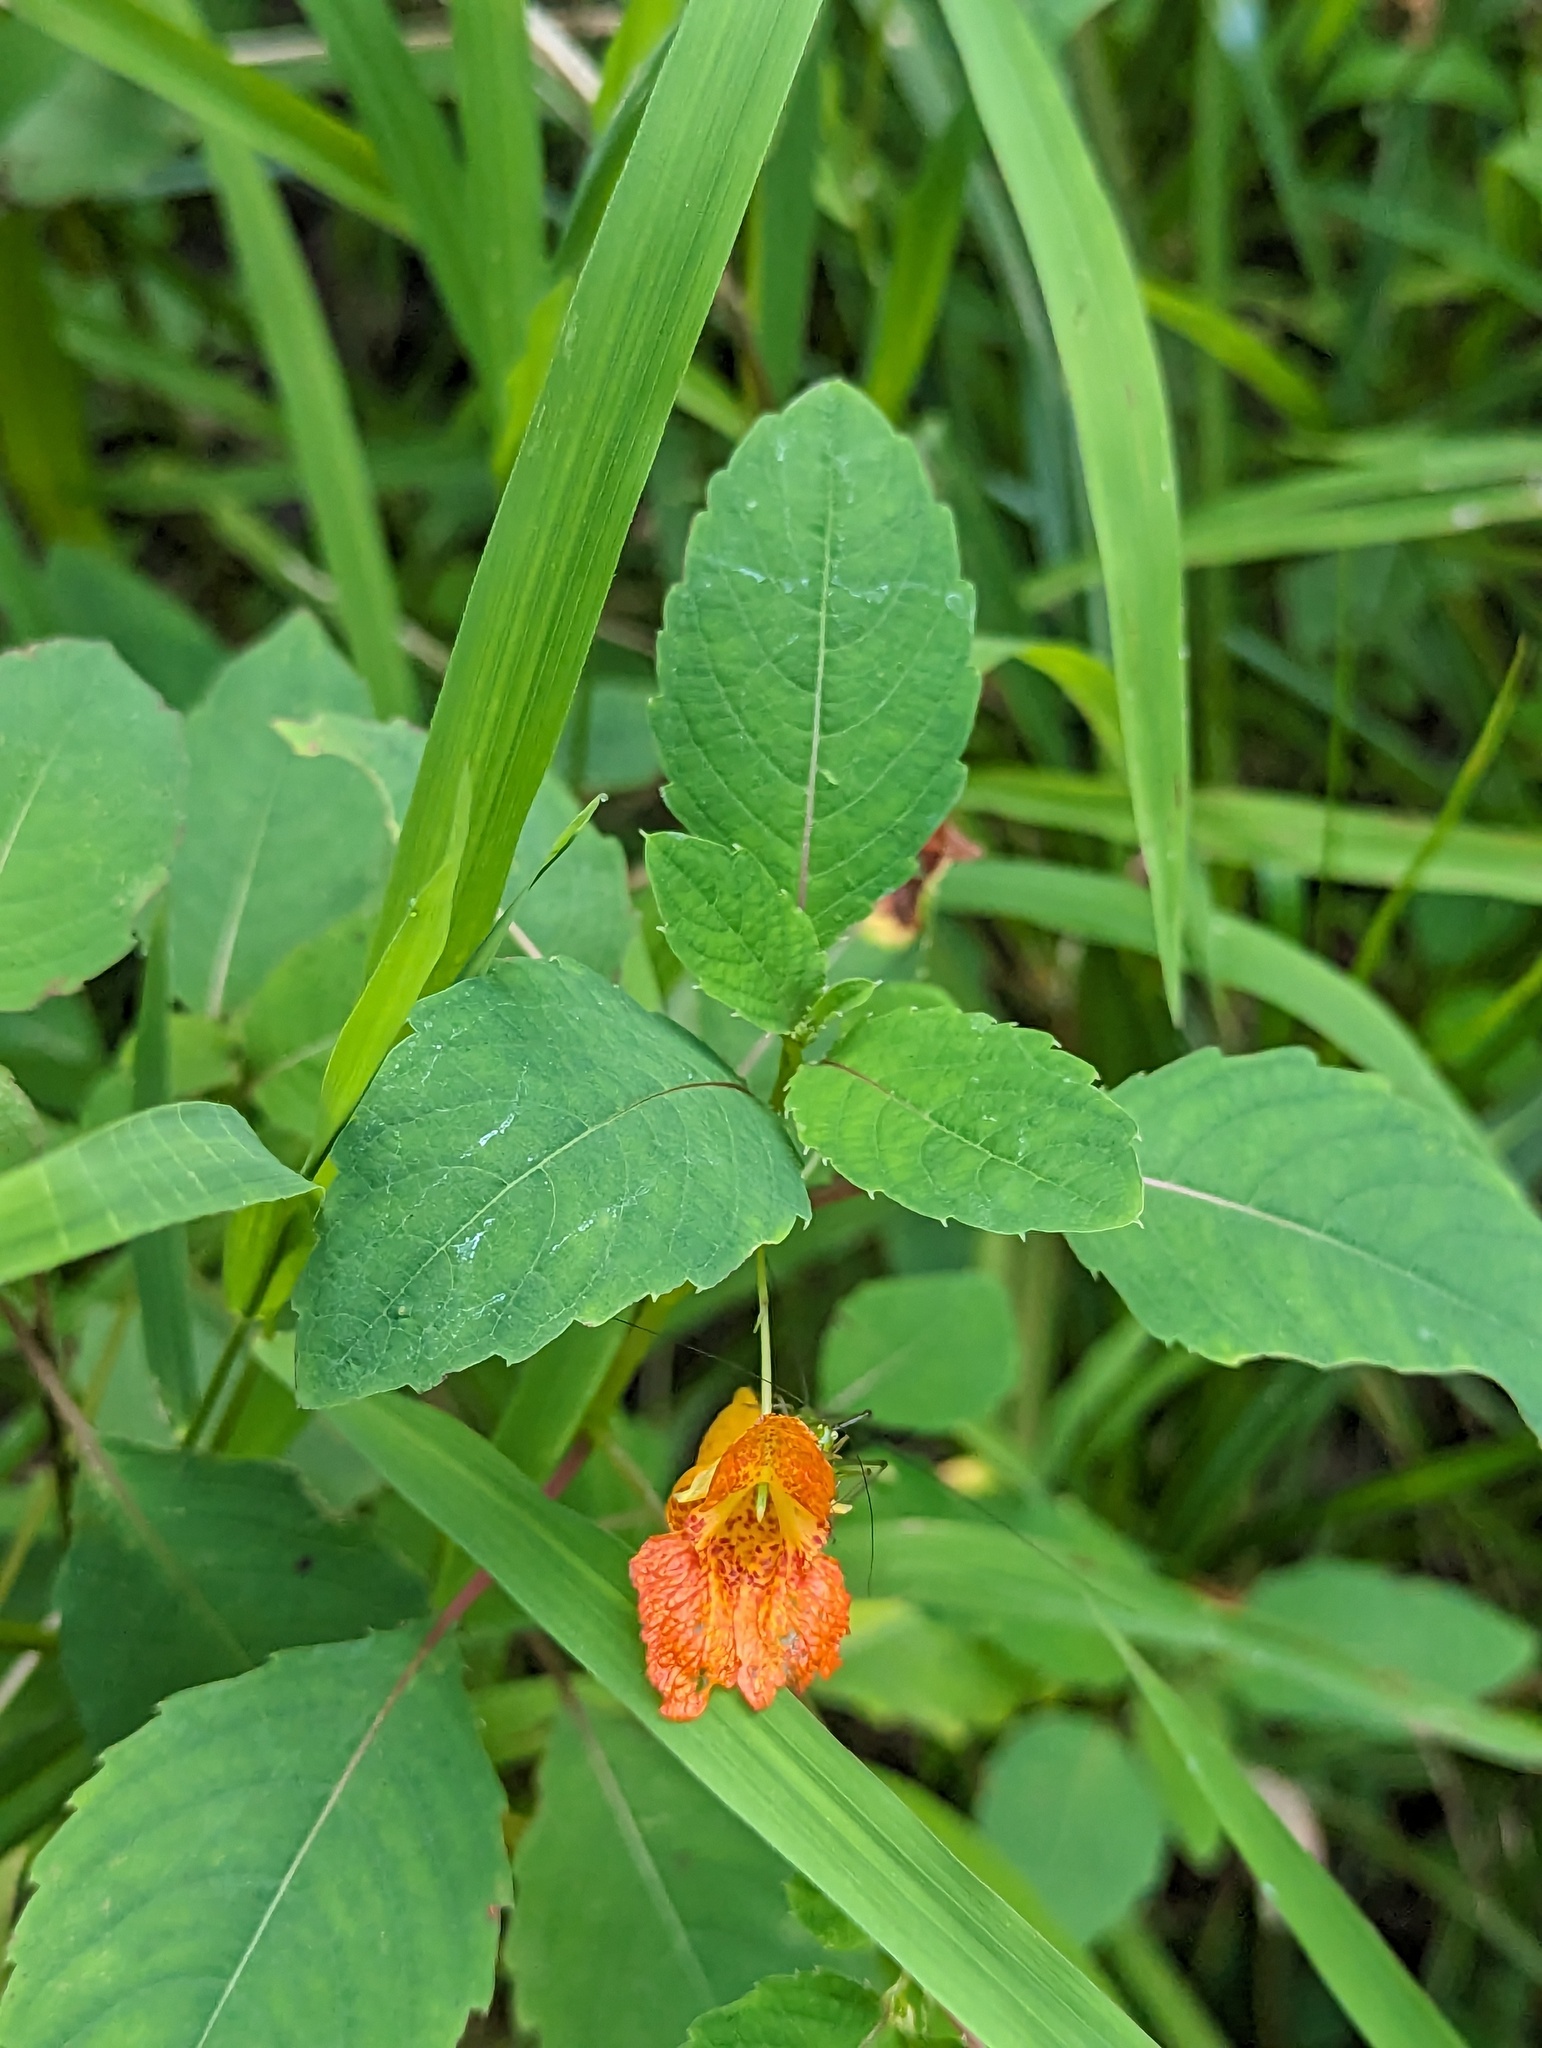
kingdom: Plantae
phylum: Tracheophyta
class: Magnoliopsida
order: Ericales
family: Balsaminaceae
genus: Impatiens
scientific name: Impatiens capensis
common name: Orange balsam
